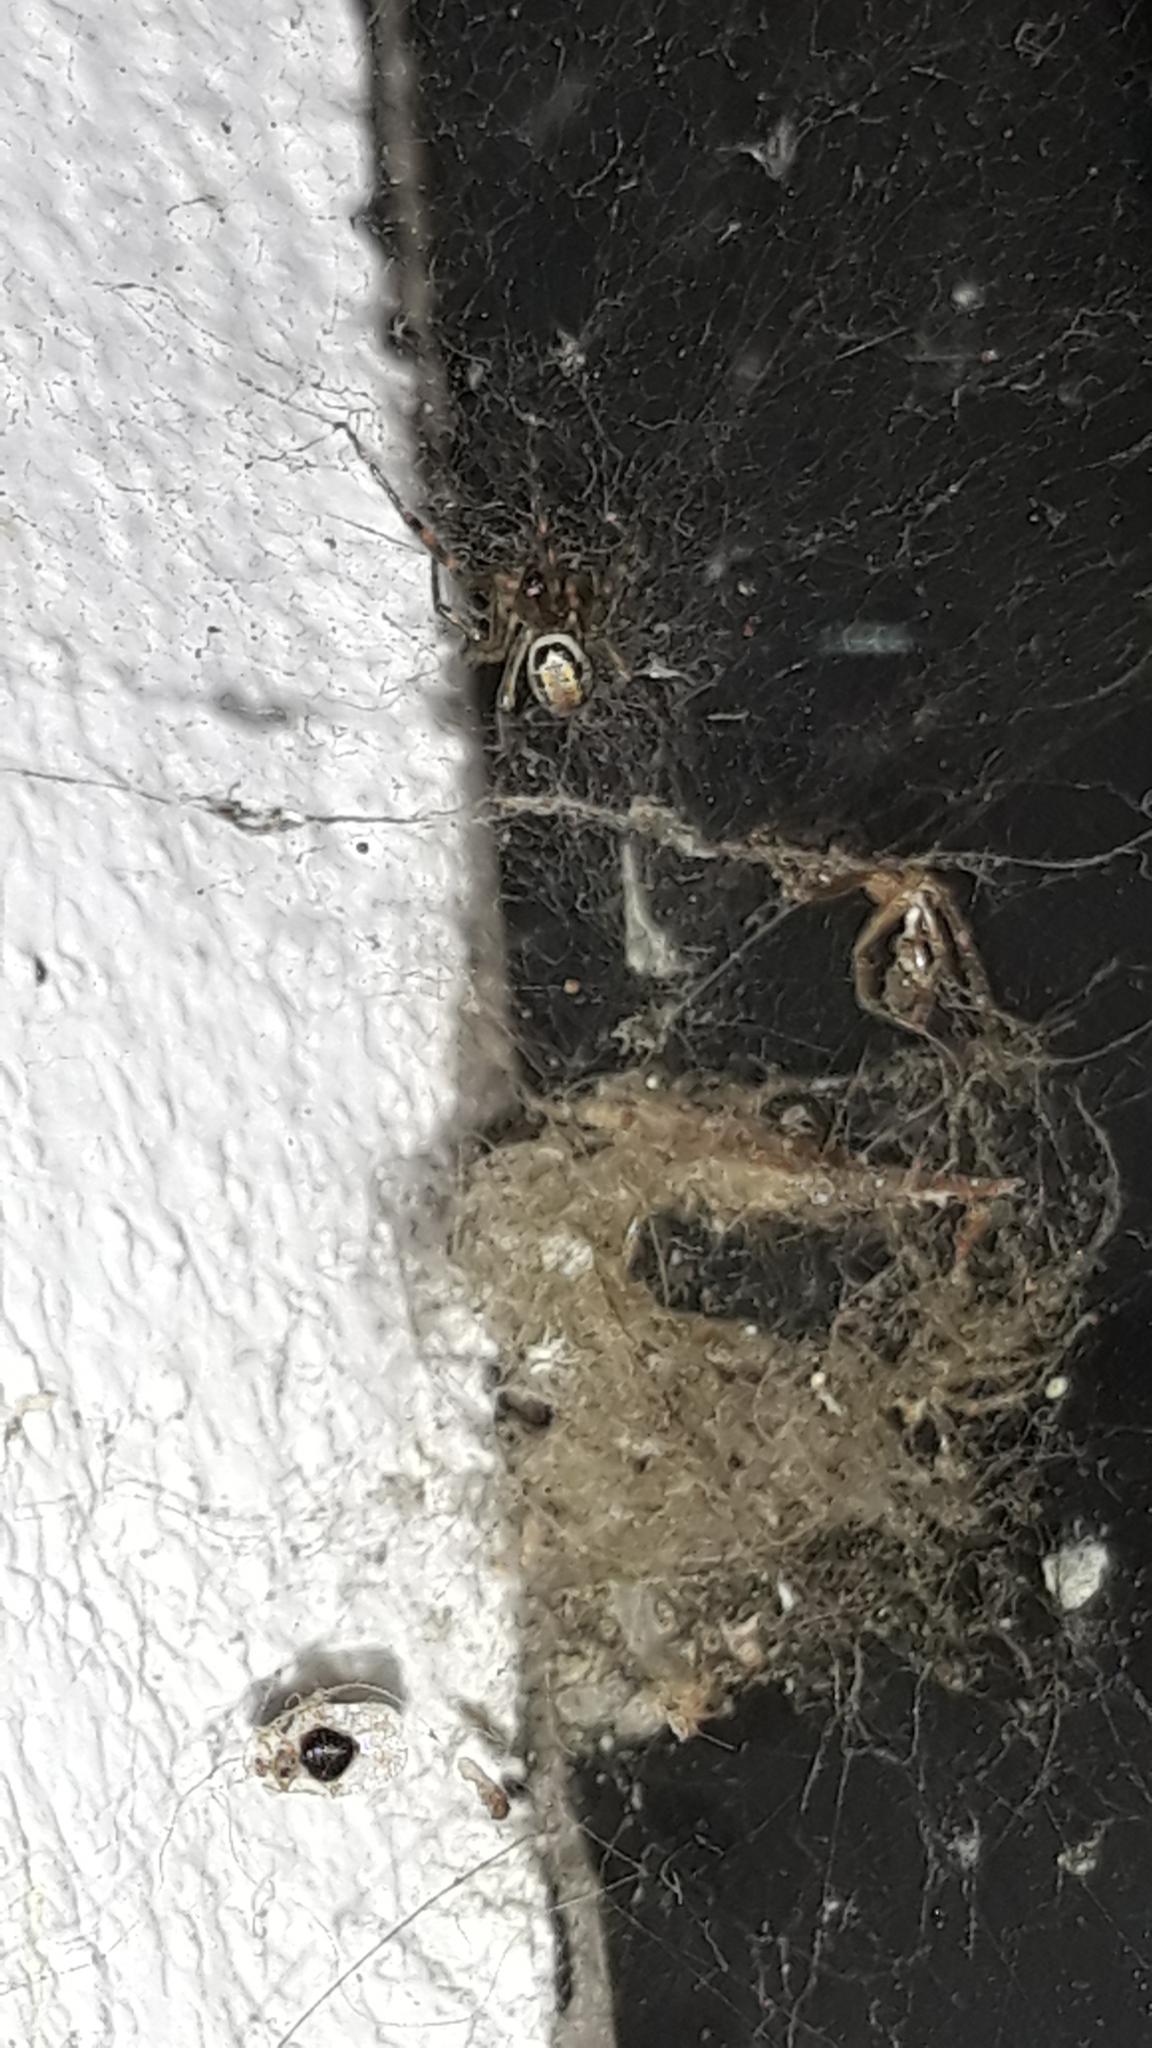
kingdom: Animalia
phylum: Arthropoda
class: Arachnida
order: Araneae
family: Theridiidae
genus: Steatoda
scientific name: Steatoda nobilis
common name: Cobweb weaver
